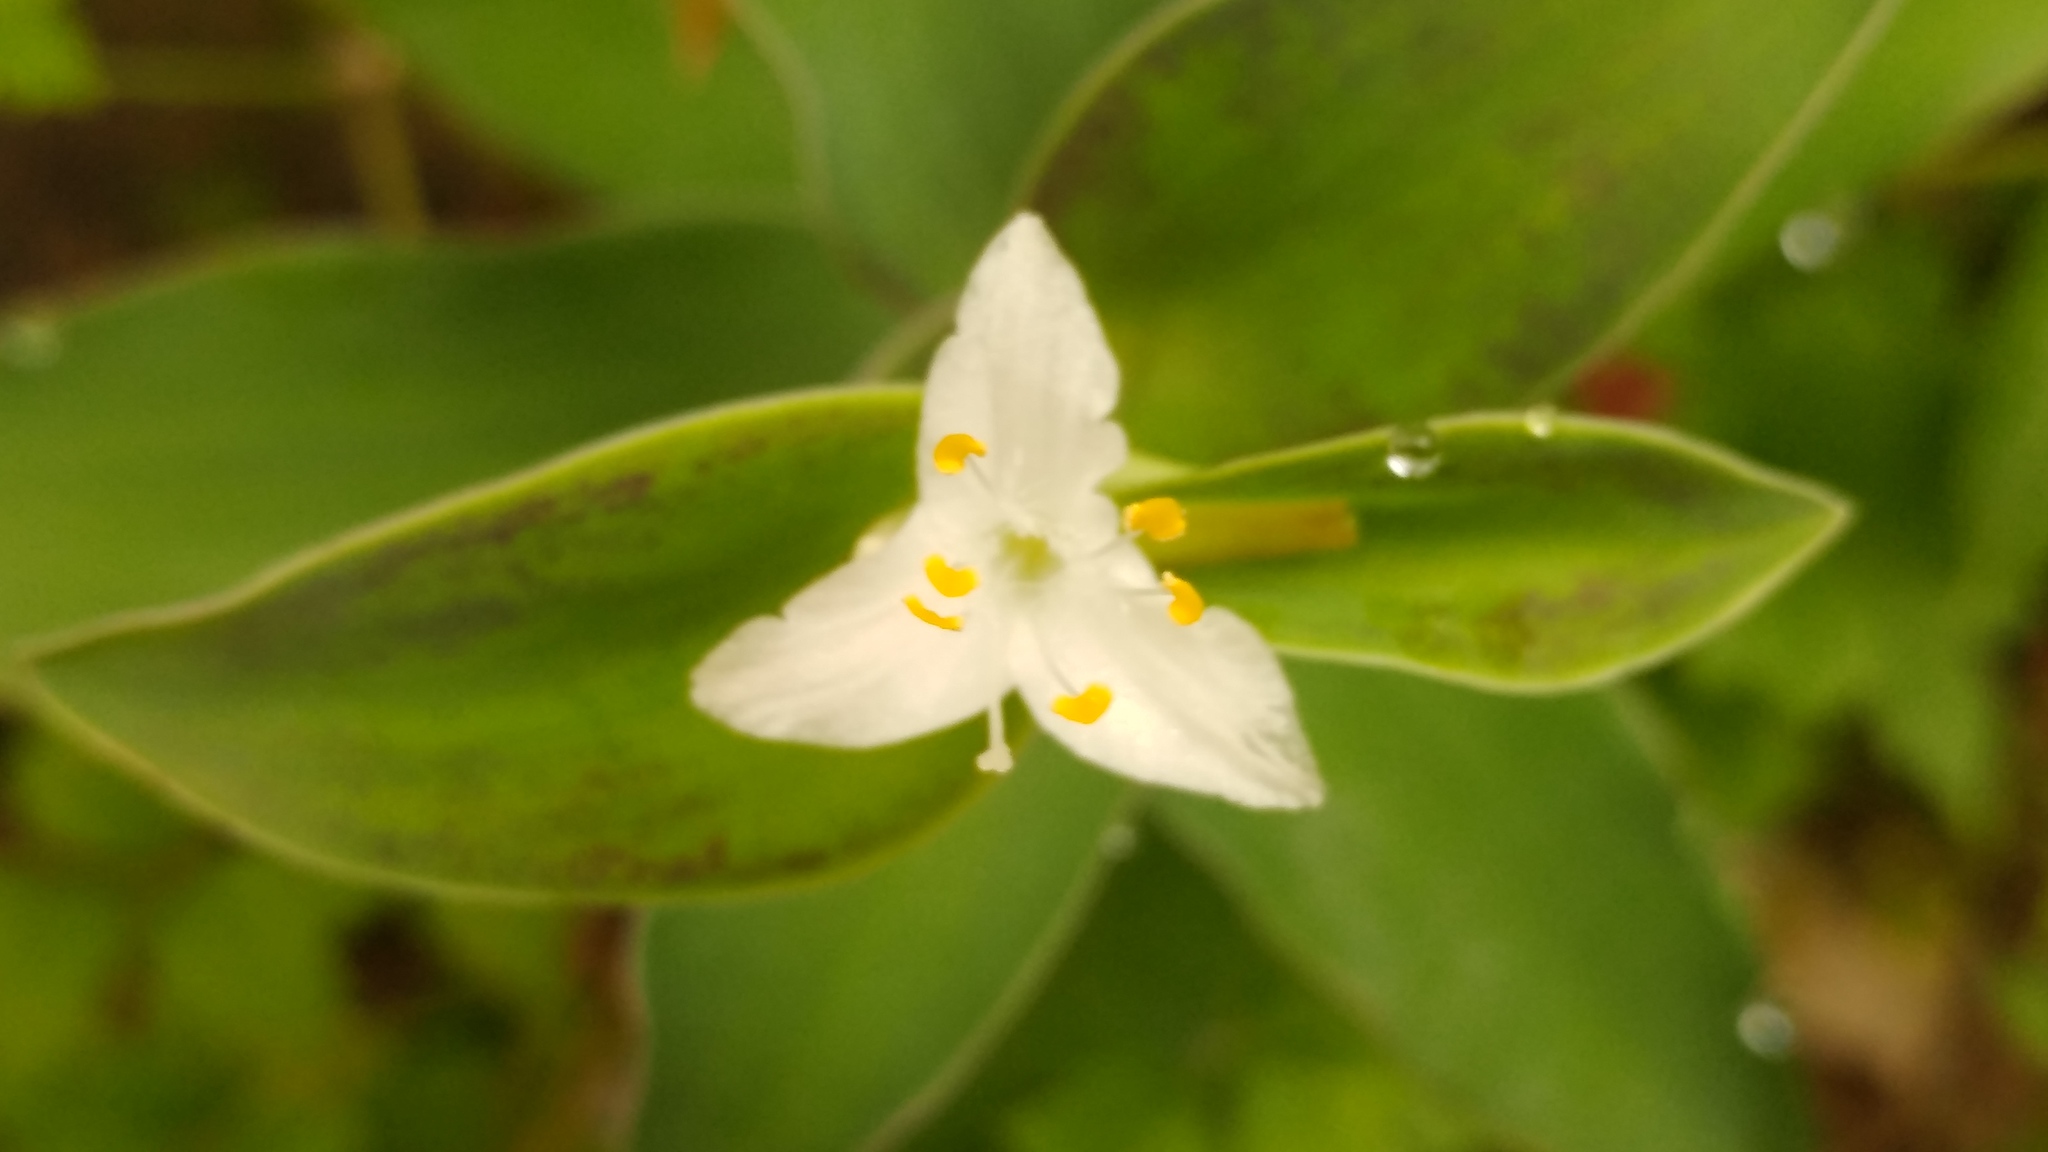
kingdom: Plantae
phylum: Tracheophyta
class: Liliopsida
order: Commelinales
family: Commelinaceae
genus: Tradescantia
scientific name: Tradescantia brevifolia
